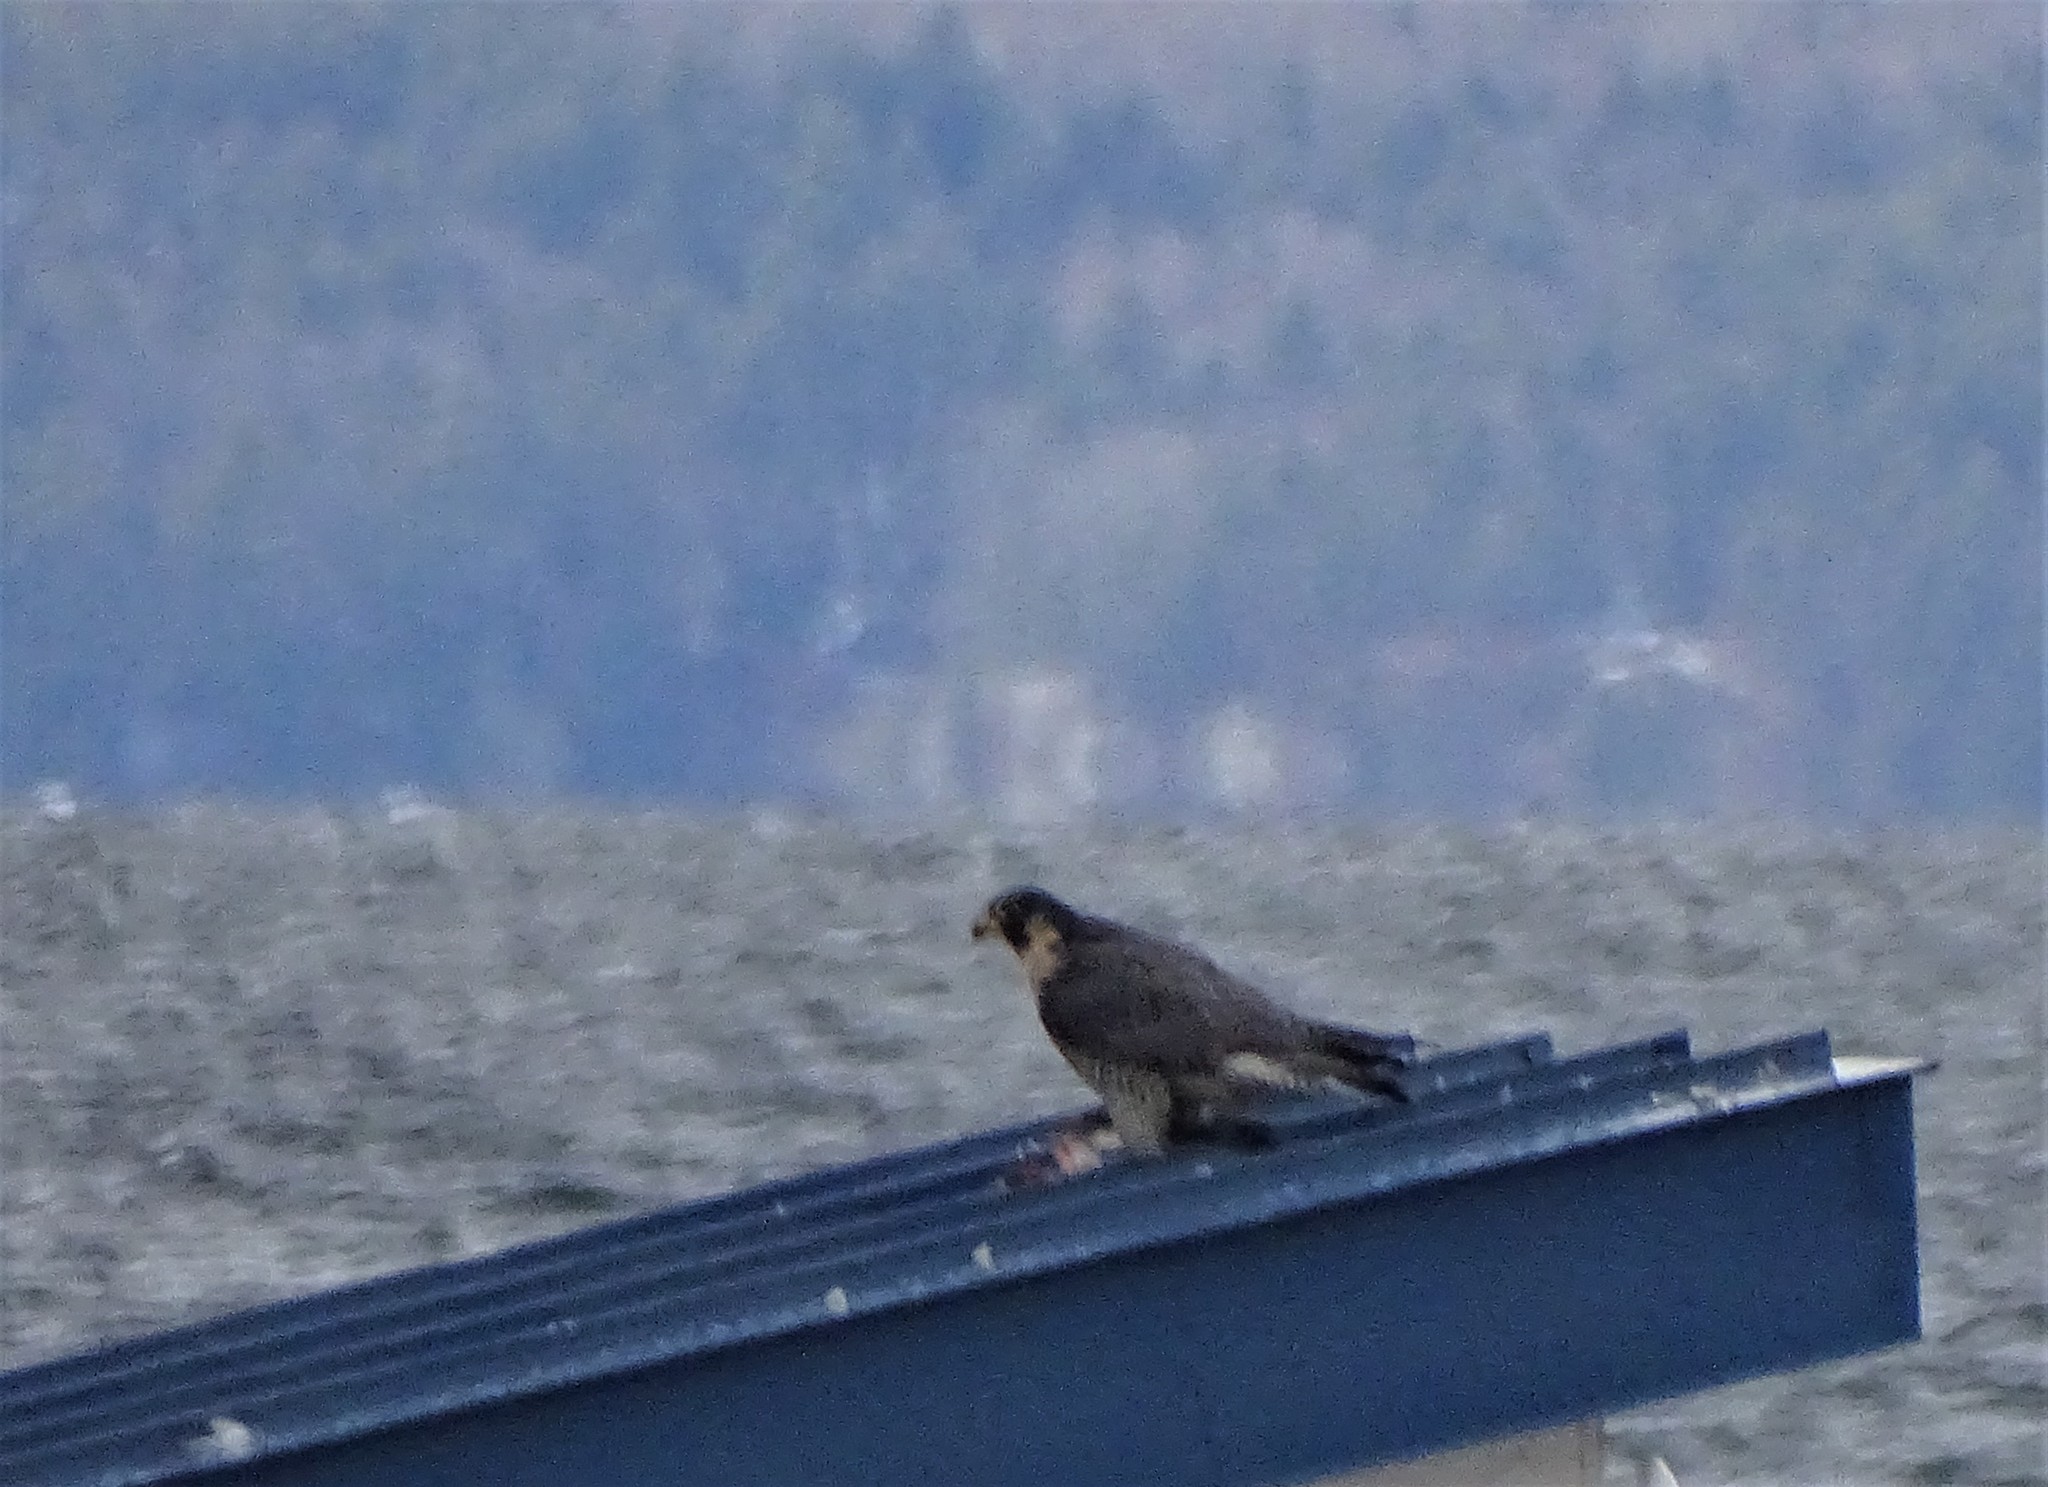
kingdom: Animalia
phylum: Chordata
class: Aves
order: Falconiformes
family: Falconidae
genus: Falco
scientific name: Falco peregrinus
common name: Peregrine falcon
